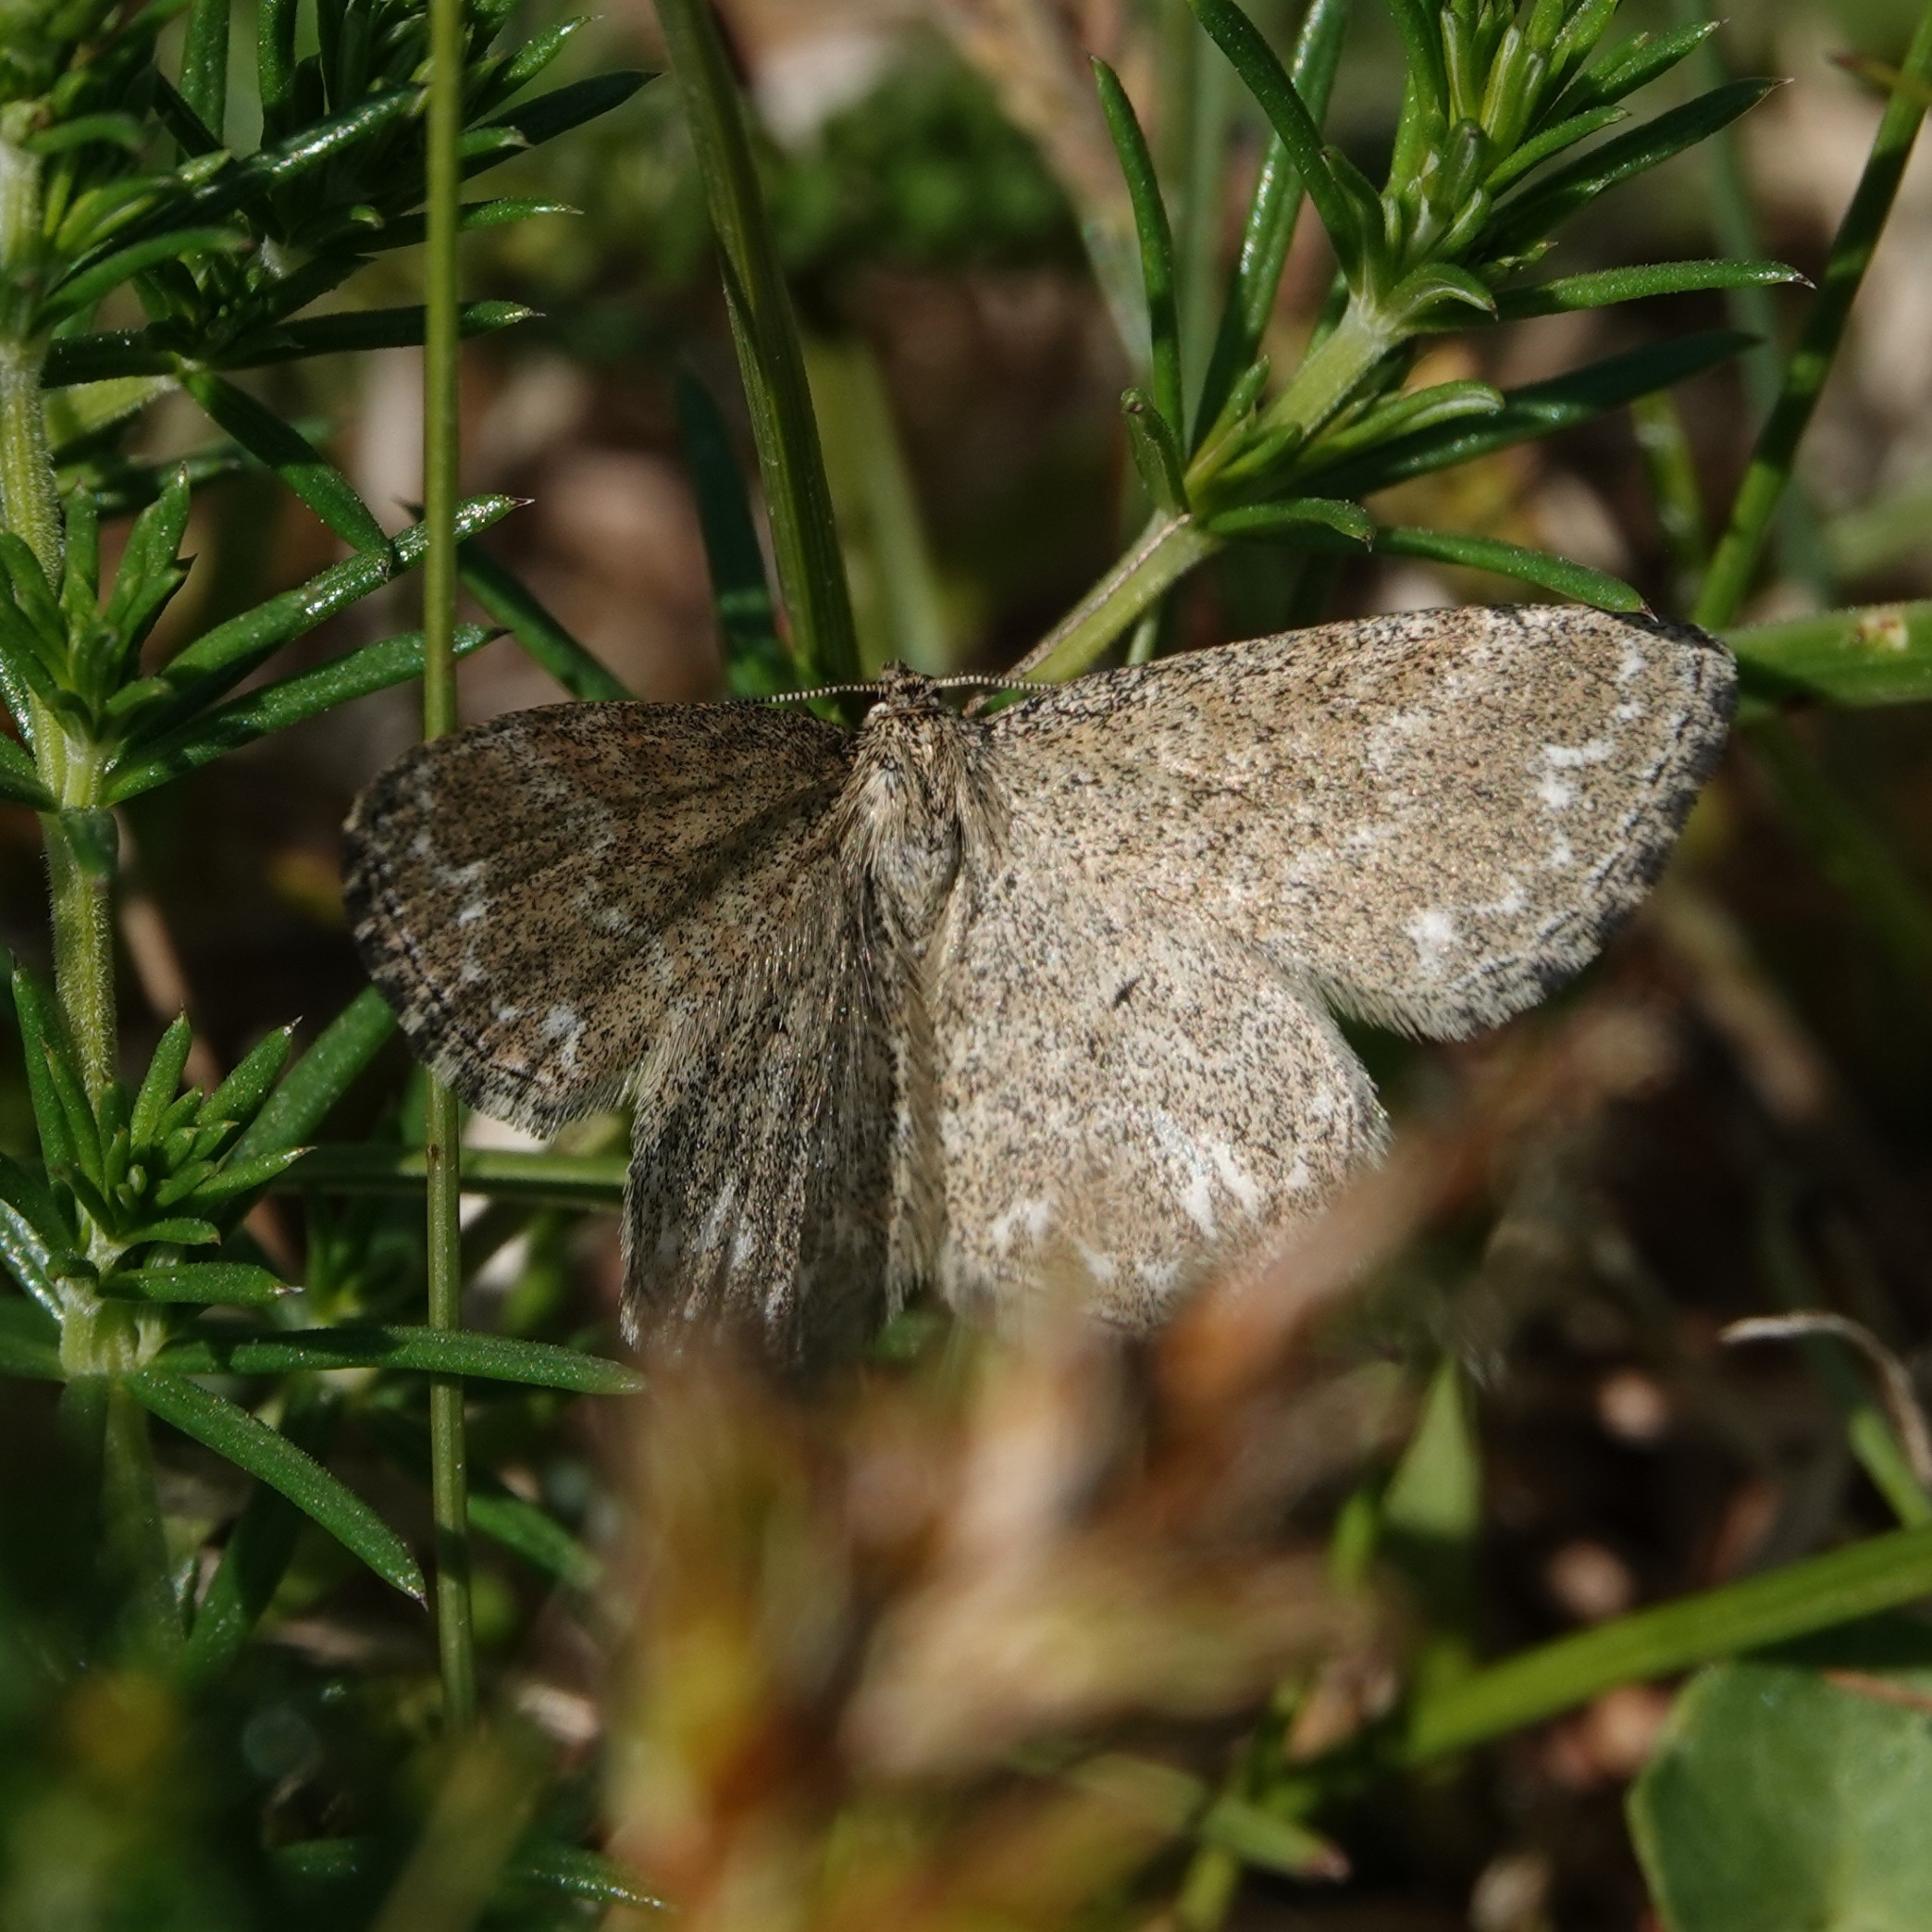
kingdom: Animalia
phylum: Arthropoda
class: Insecta
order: Lepidoptera
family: Geometridae
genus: Scopula
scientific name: Scopula immorata
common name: Lewes wave
